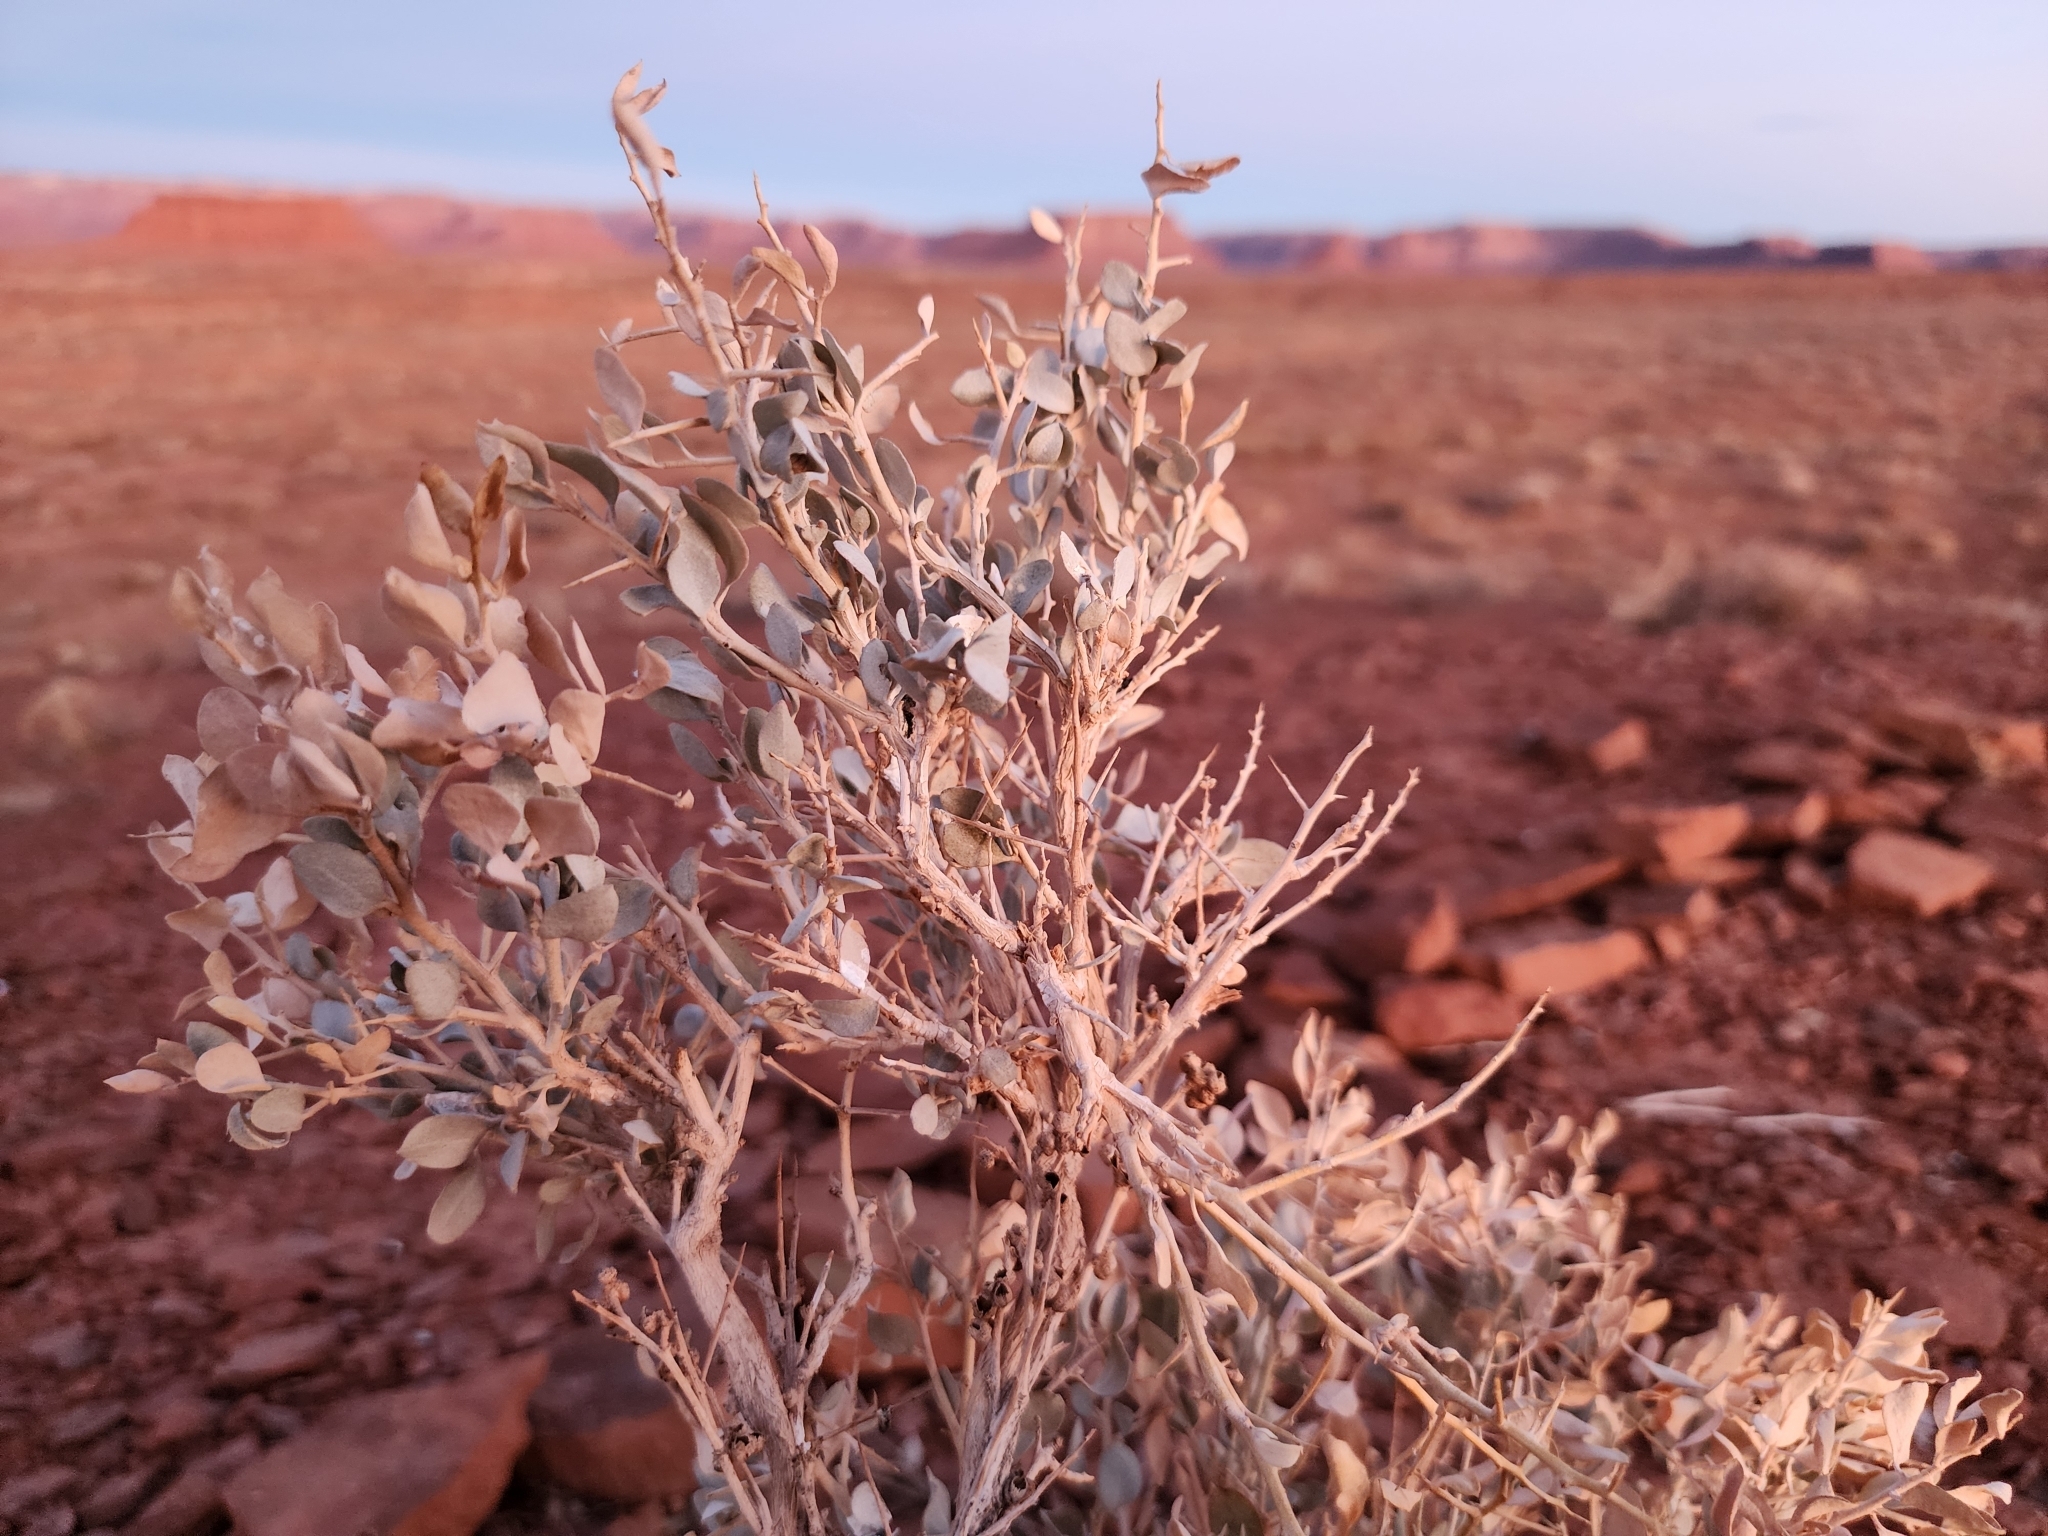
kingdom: Plantae
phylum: Tracheophyta
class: Magnoliopsida
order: Caryophyllales
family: Amaranthaceae
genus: Atriplex
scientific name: Atriplex confertifolia
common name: Shadscale
